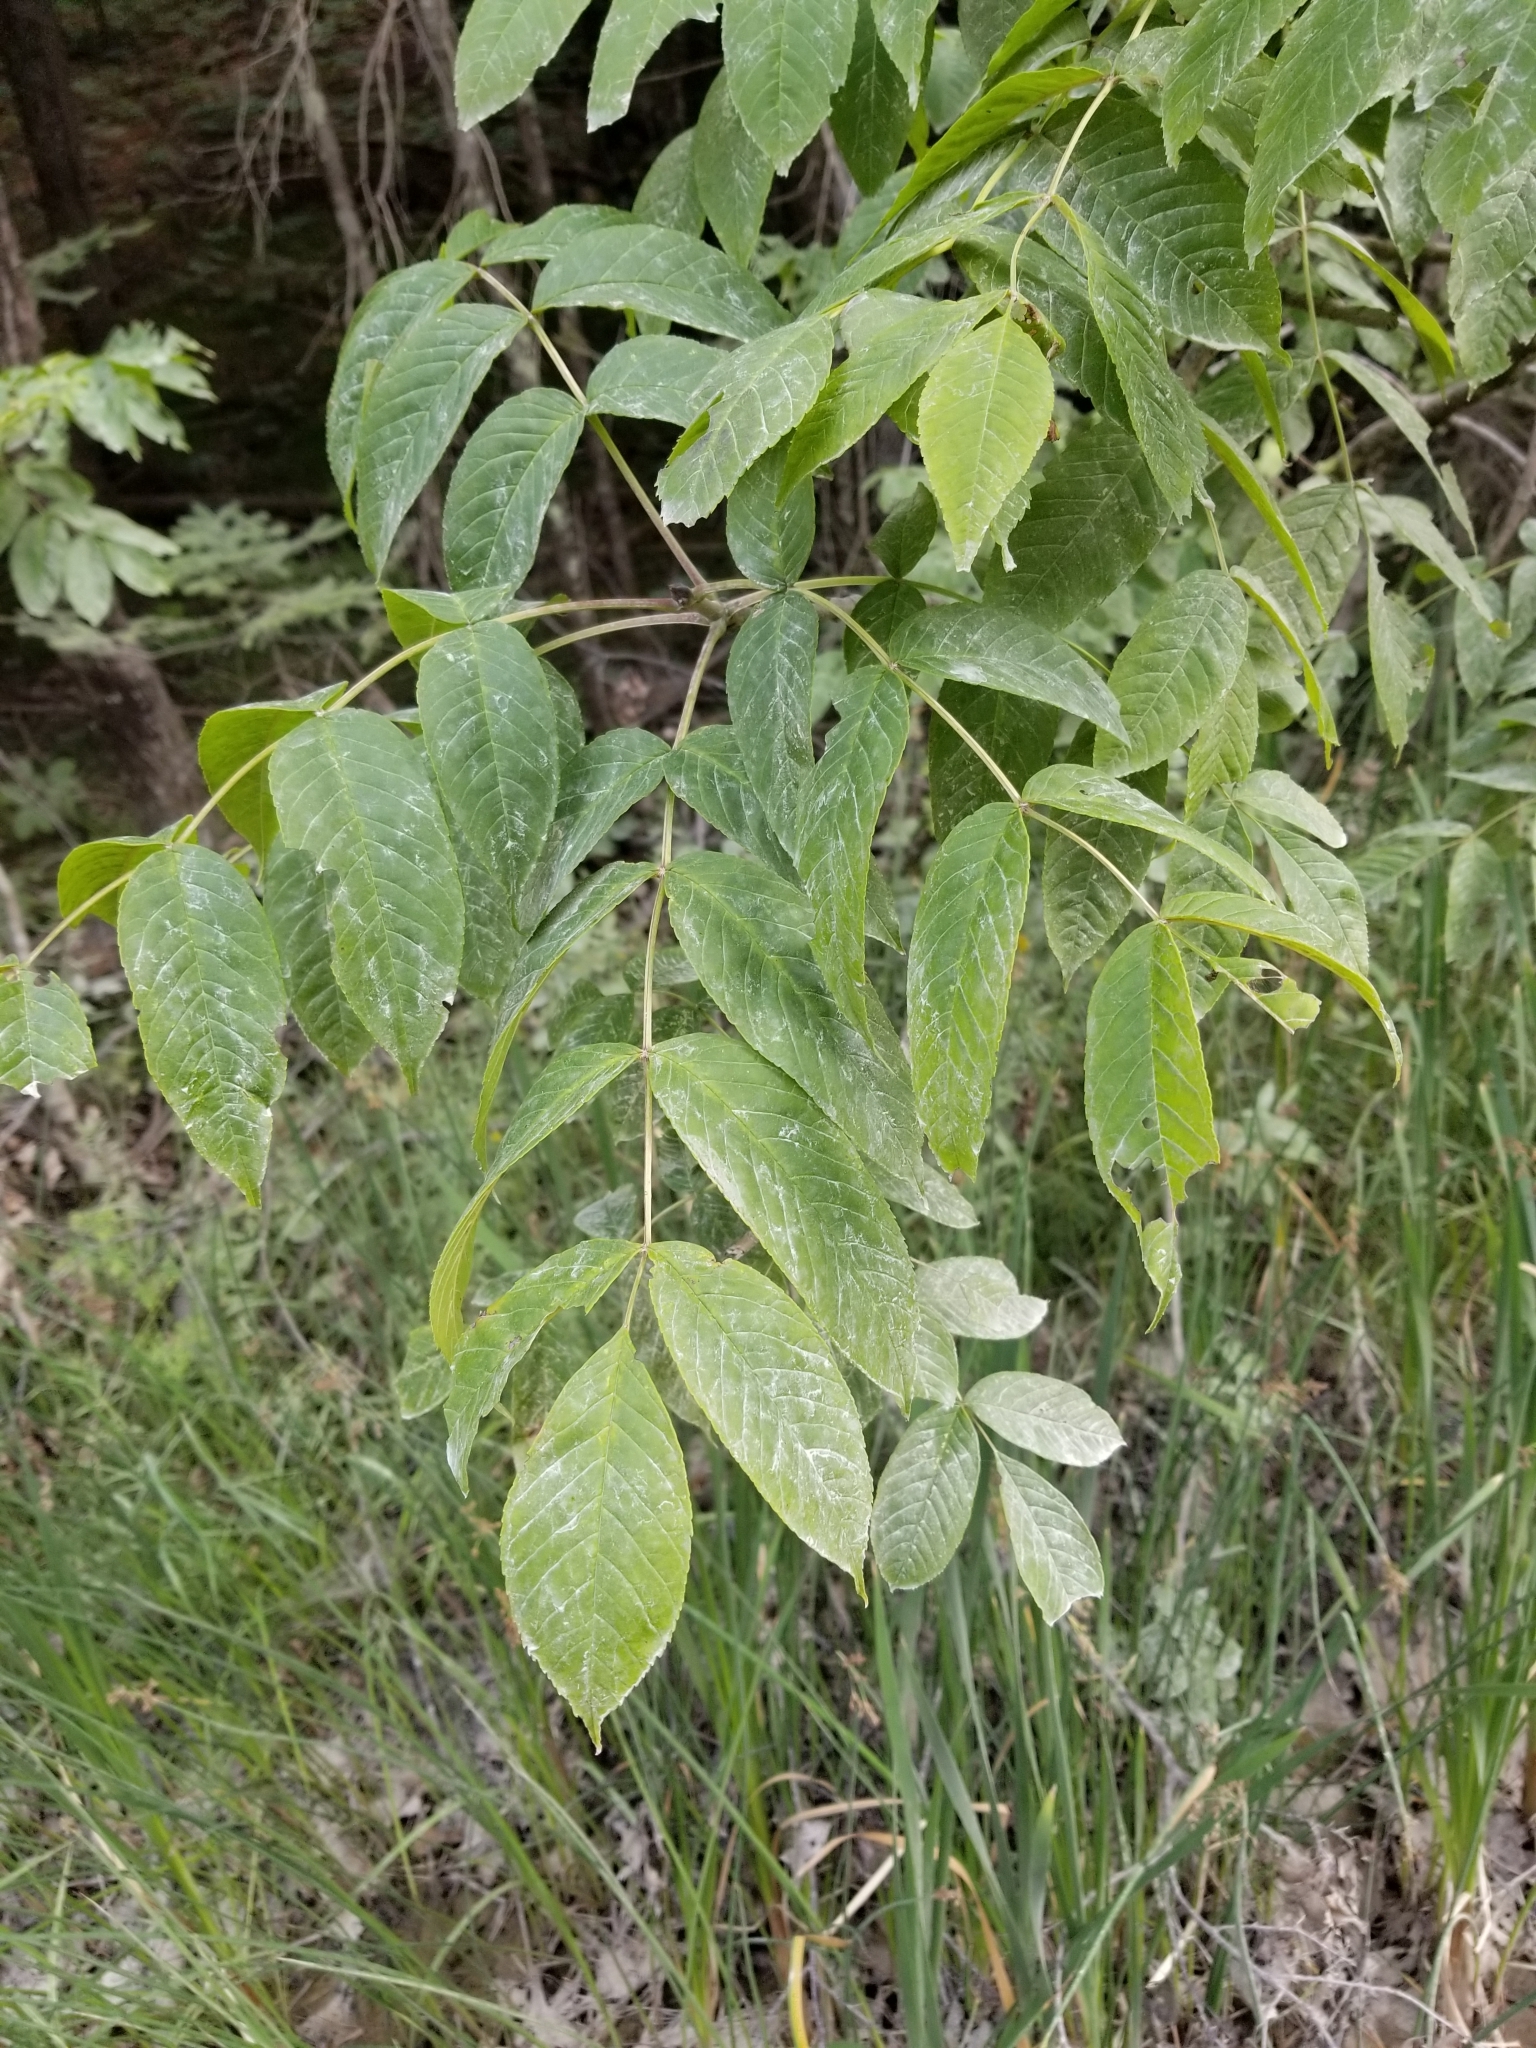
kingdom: Plantae
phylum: Tracheophyta
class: Magnoliopsida
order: Lamiales
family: Oleaceae
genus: Fraxinus
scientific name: Fraxinus nigra
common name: Black ash
